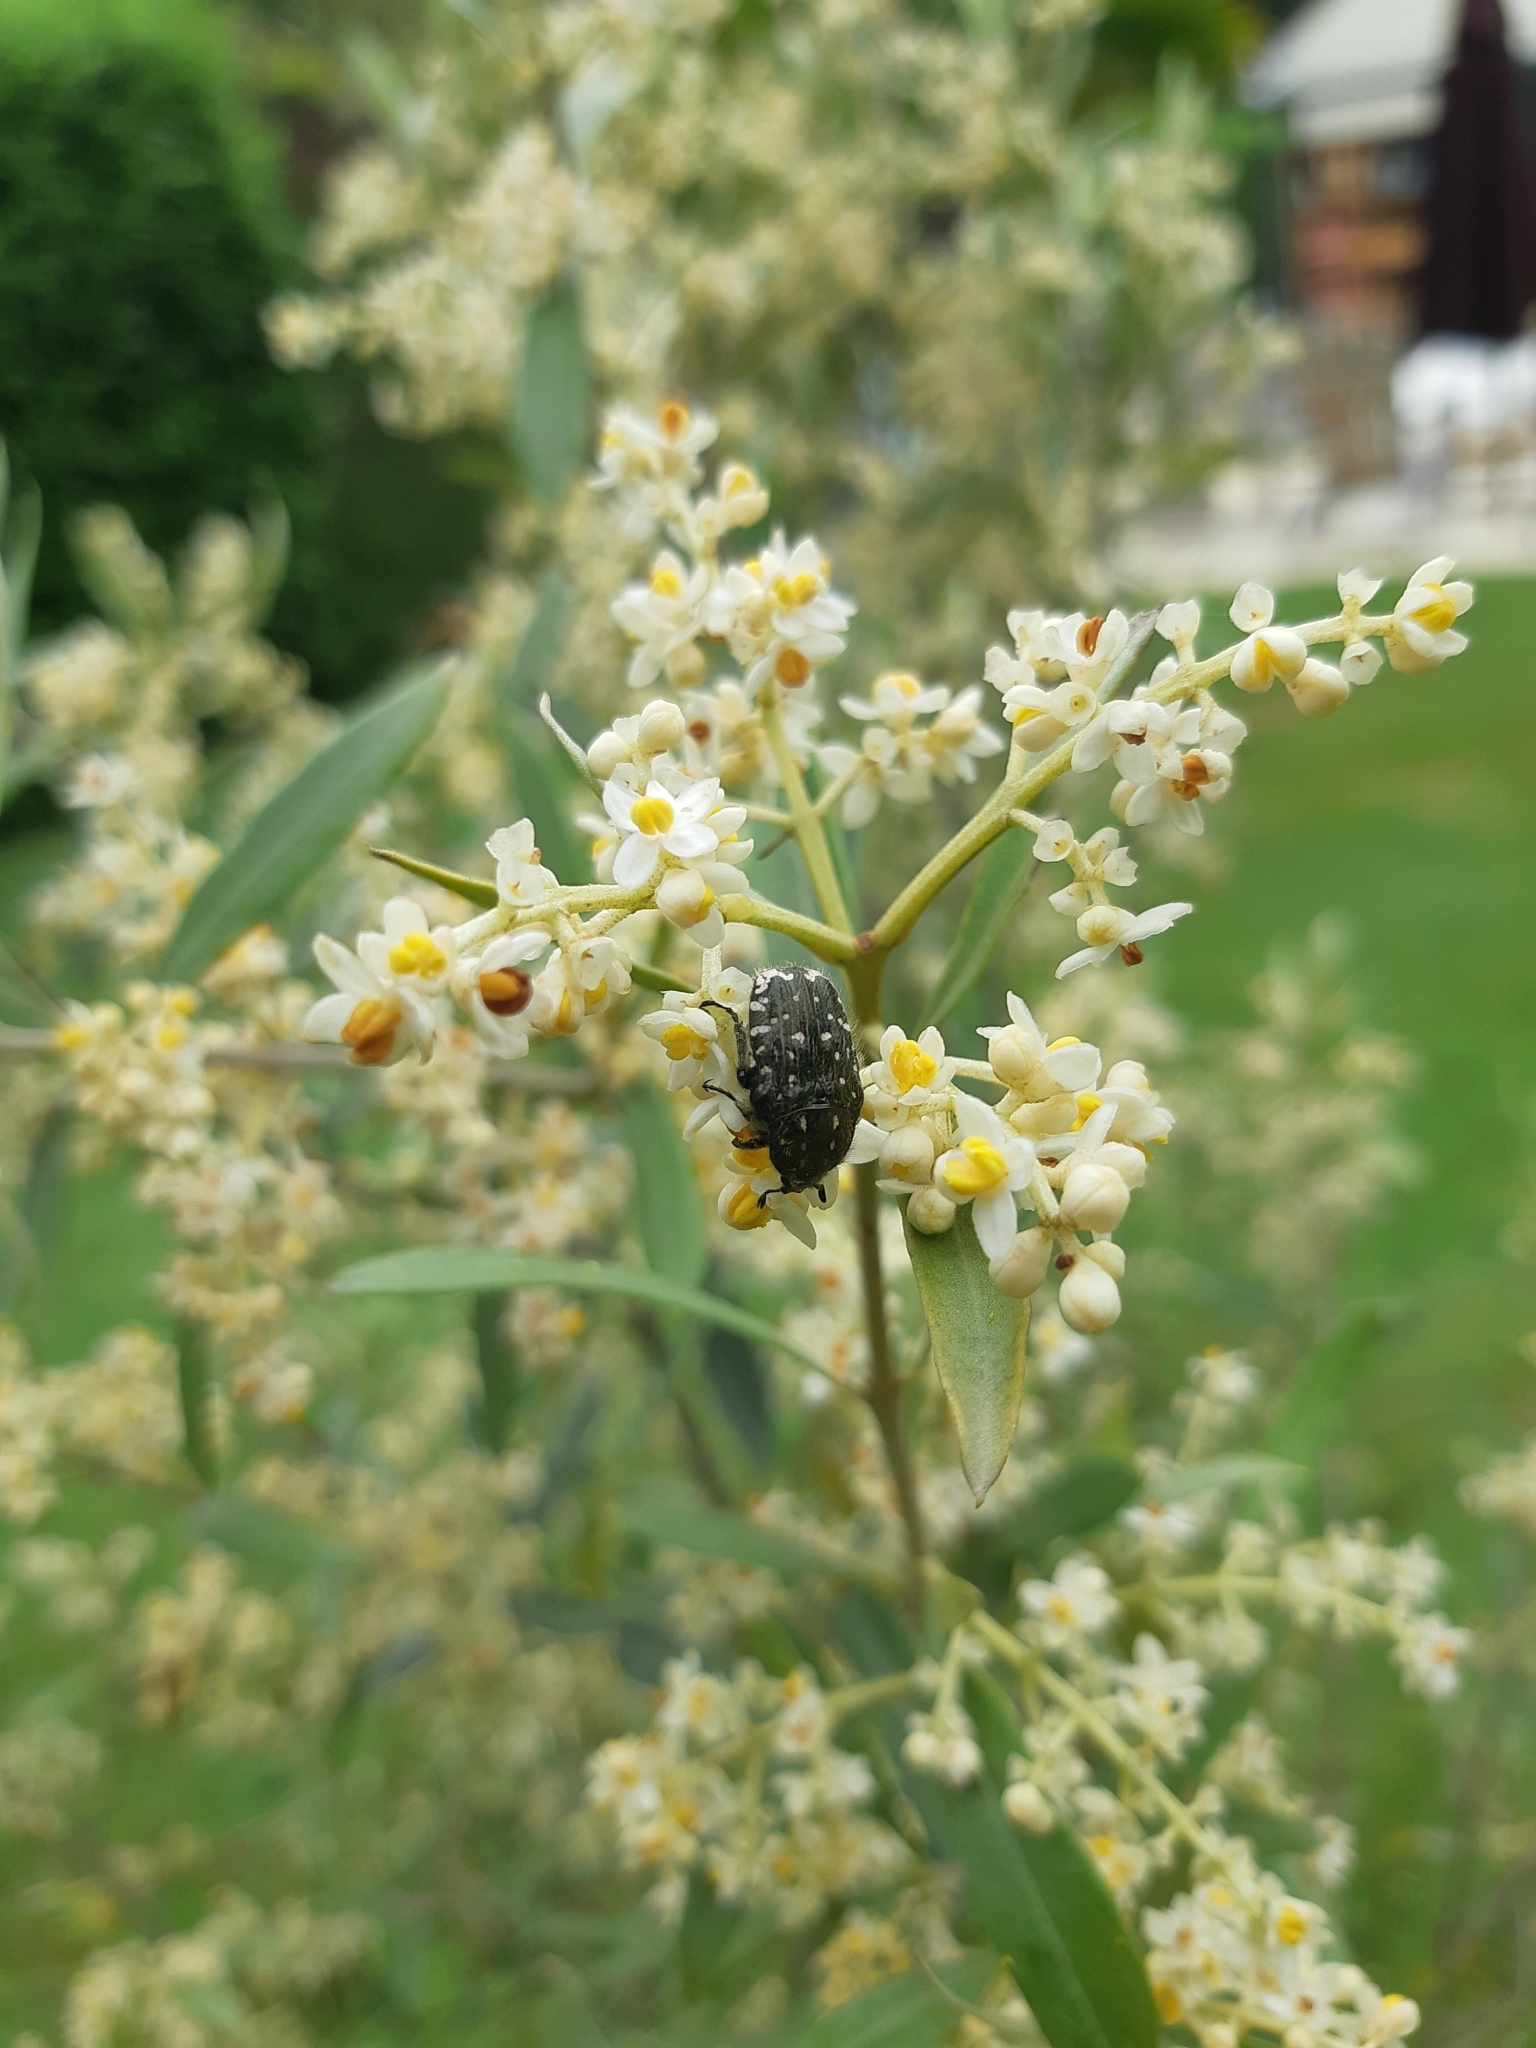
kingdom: Animalia
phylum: Arthropoda
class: Insecta
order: Coleoptera
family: Scarabaeidae
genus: Oxythyrea
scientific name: Oxythyrea funesta
